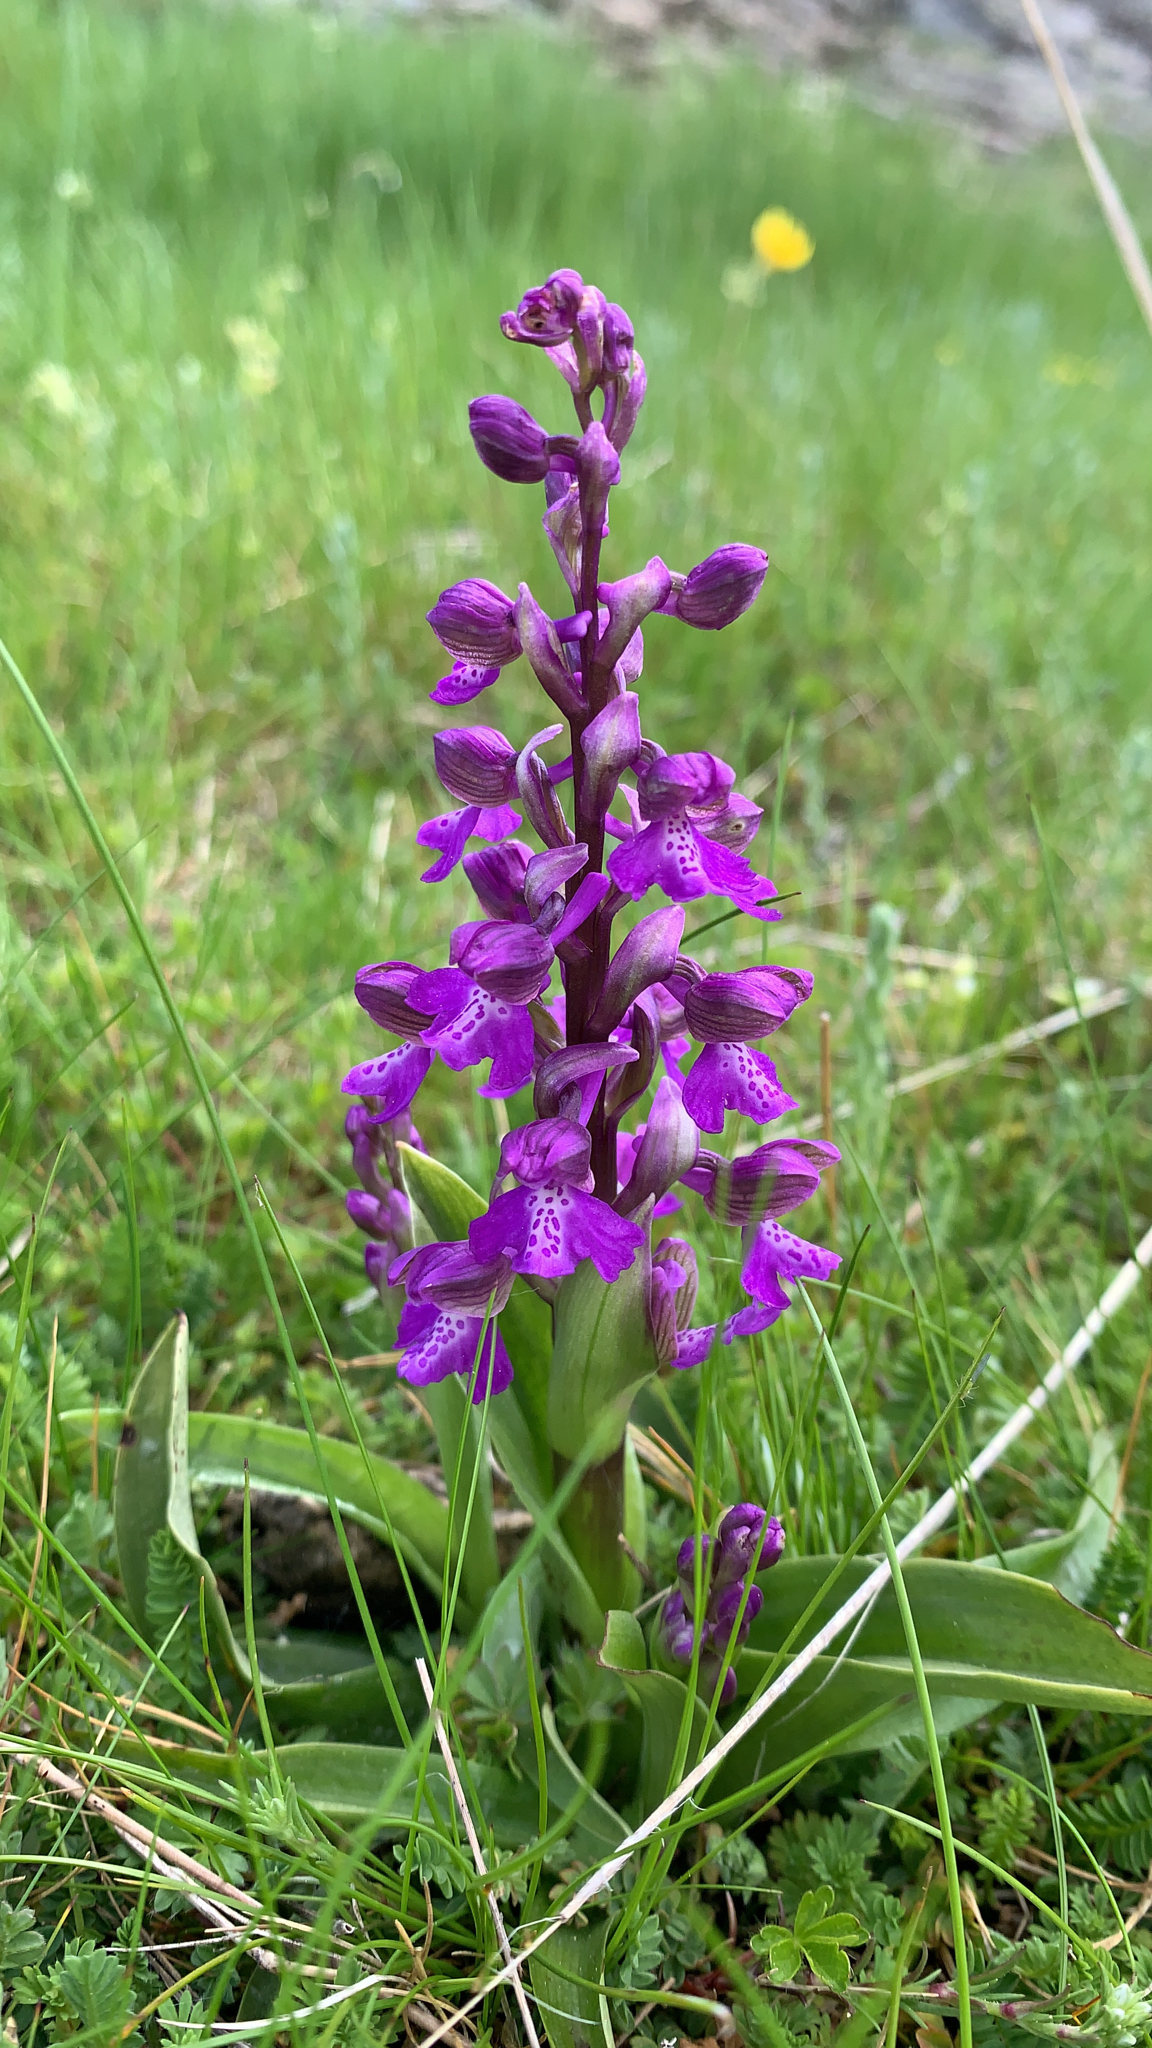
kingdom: Plantae
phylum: Tracheophyta
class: Liliopsida
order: Asparagales
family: Orchidaceae
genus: Anacamptis
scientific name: Anacamptis morio
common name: Green-winged orchid
